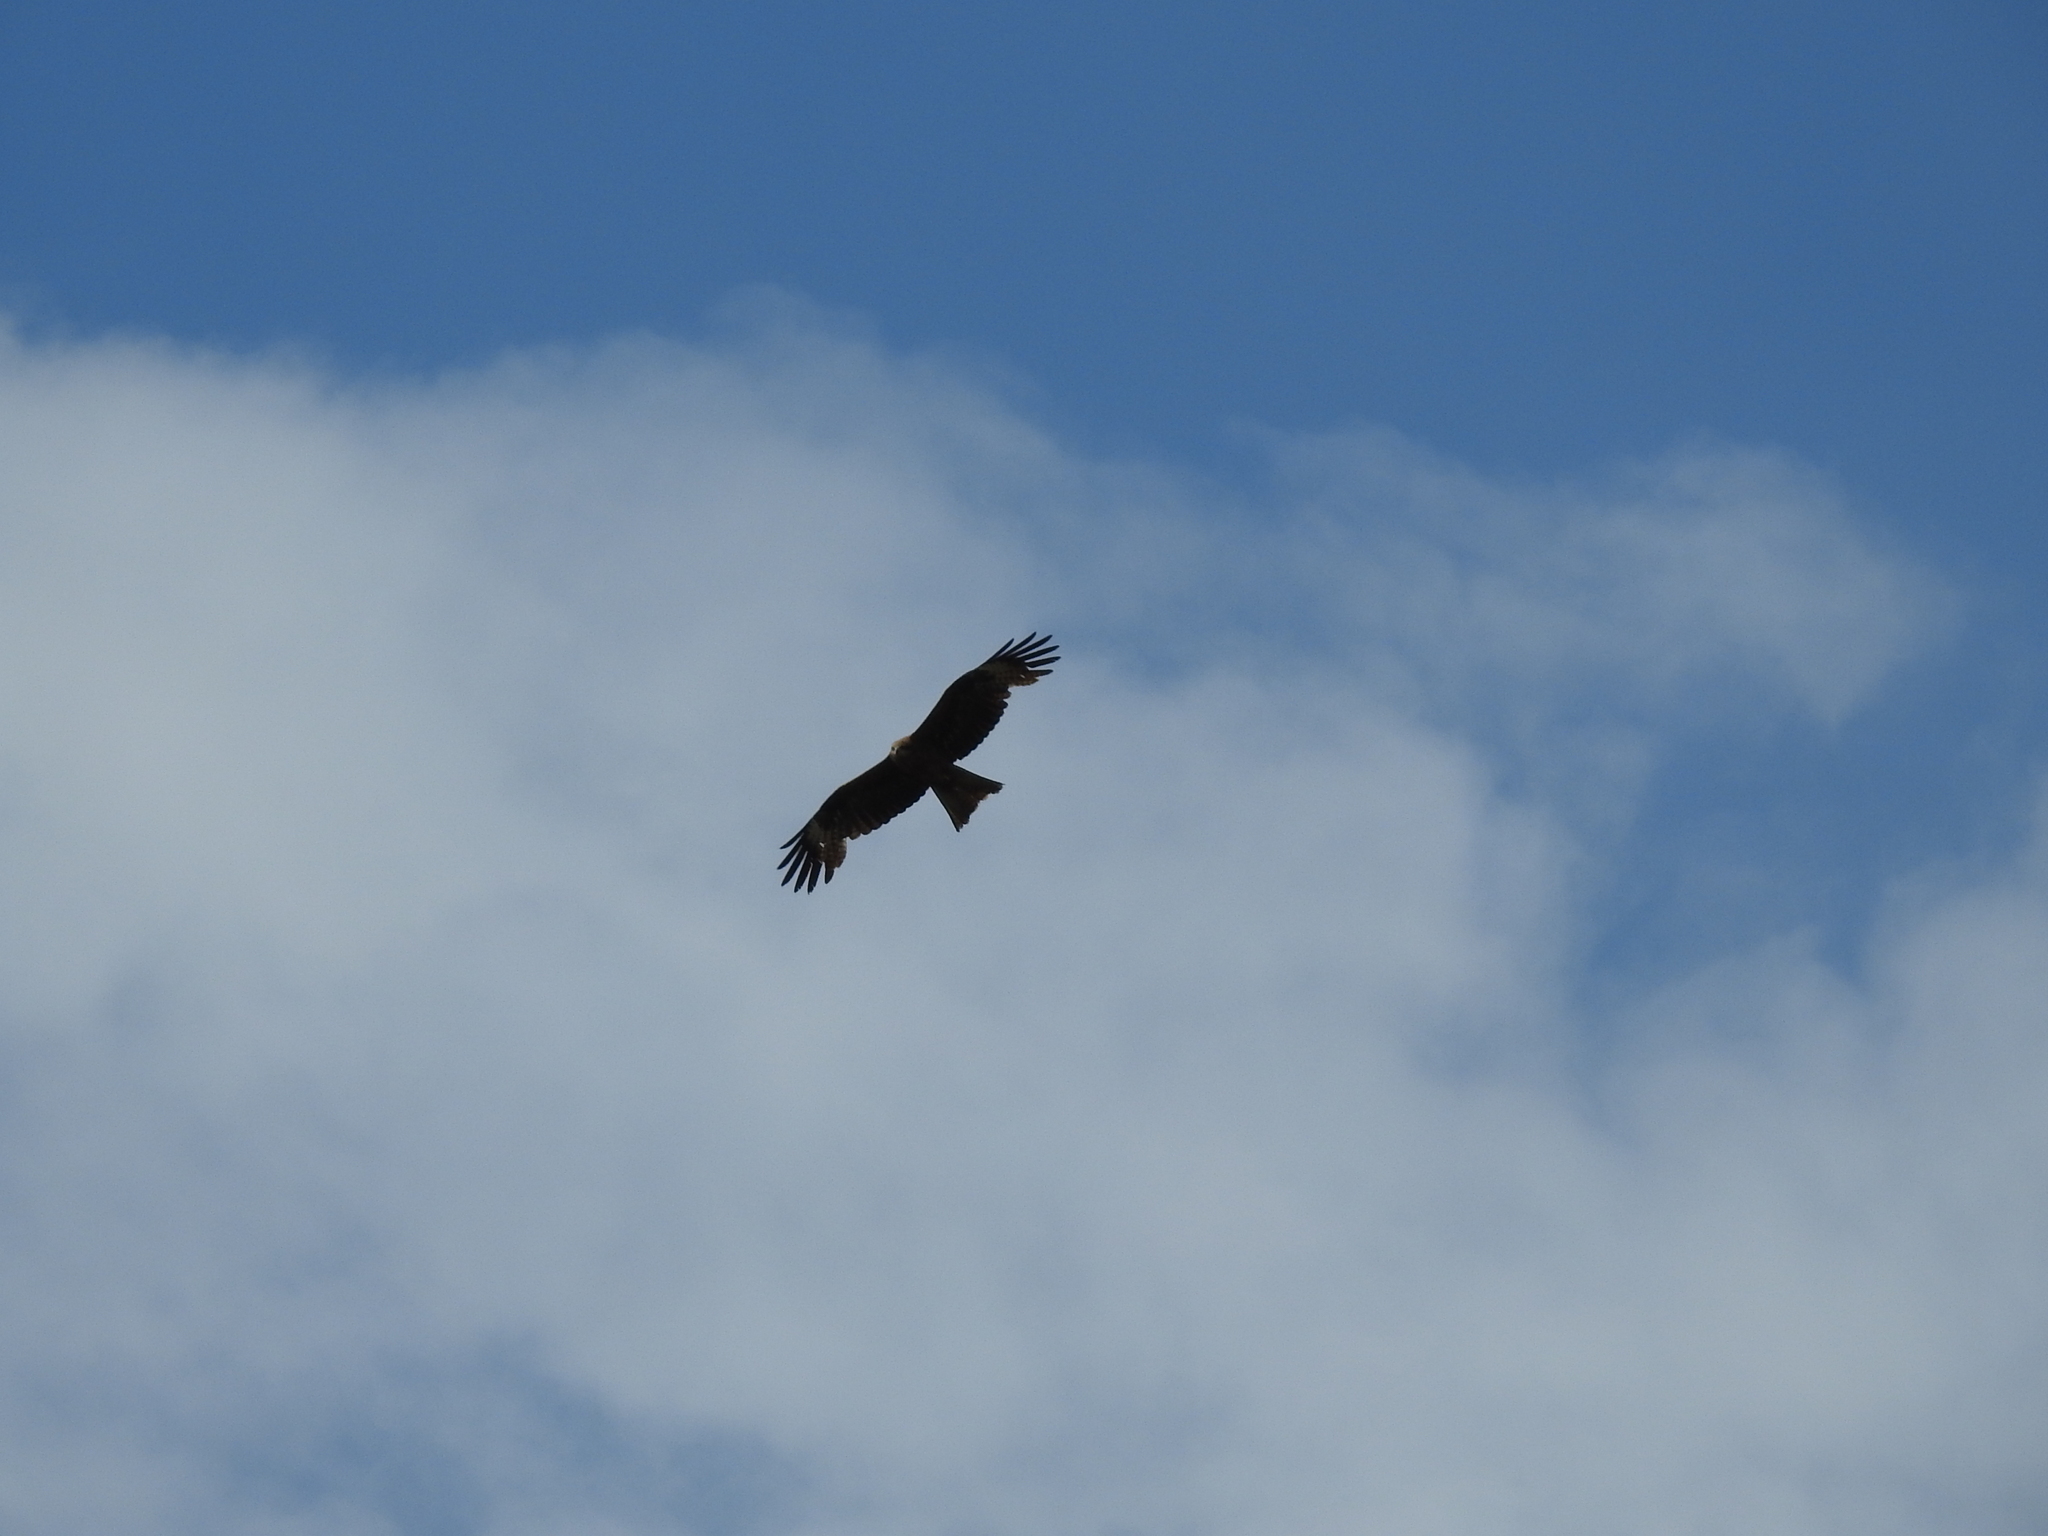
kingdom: Animalia
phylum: Chordata
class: Aves
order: Accipitriformes
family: Accipitridae
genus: Milvus
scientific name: Milvus migrans
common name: Black kite
